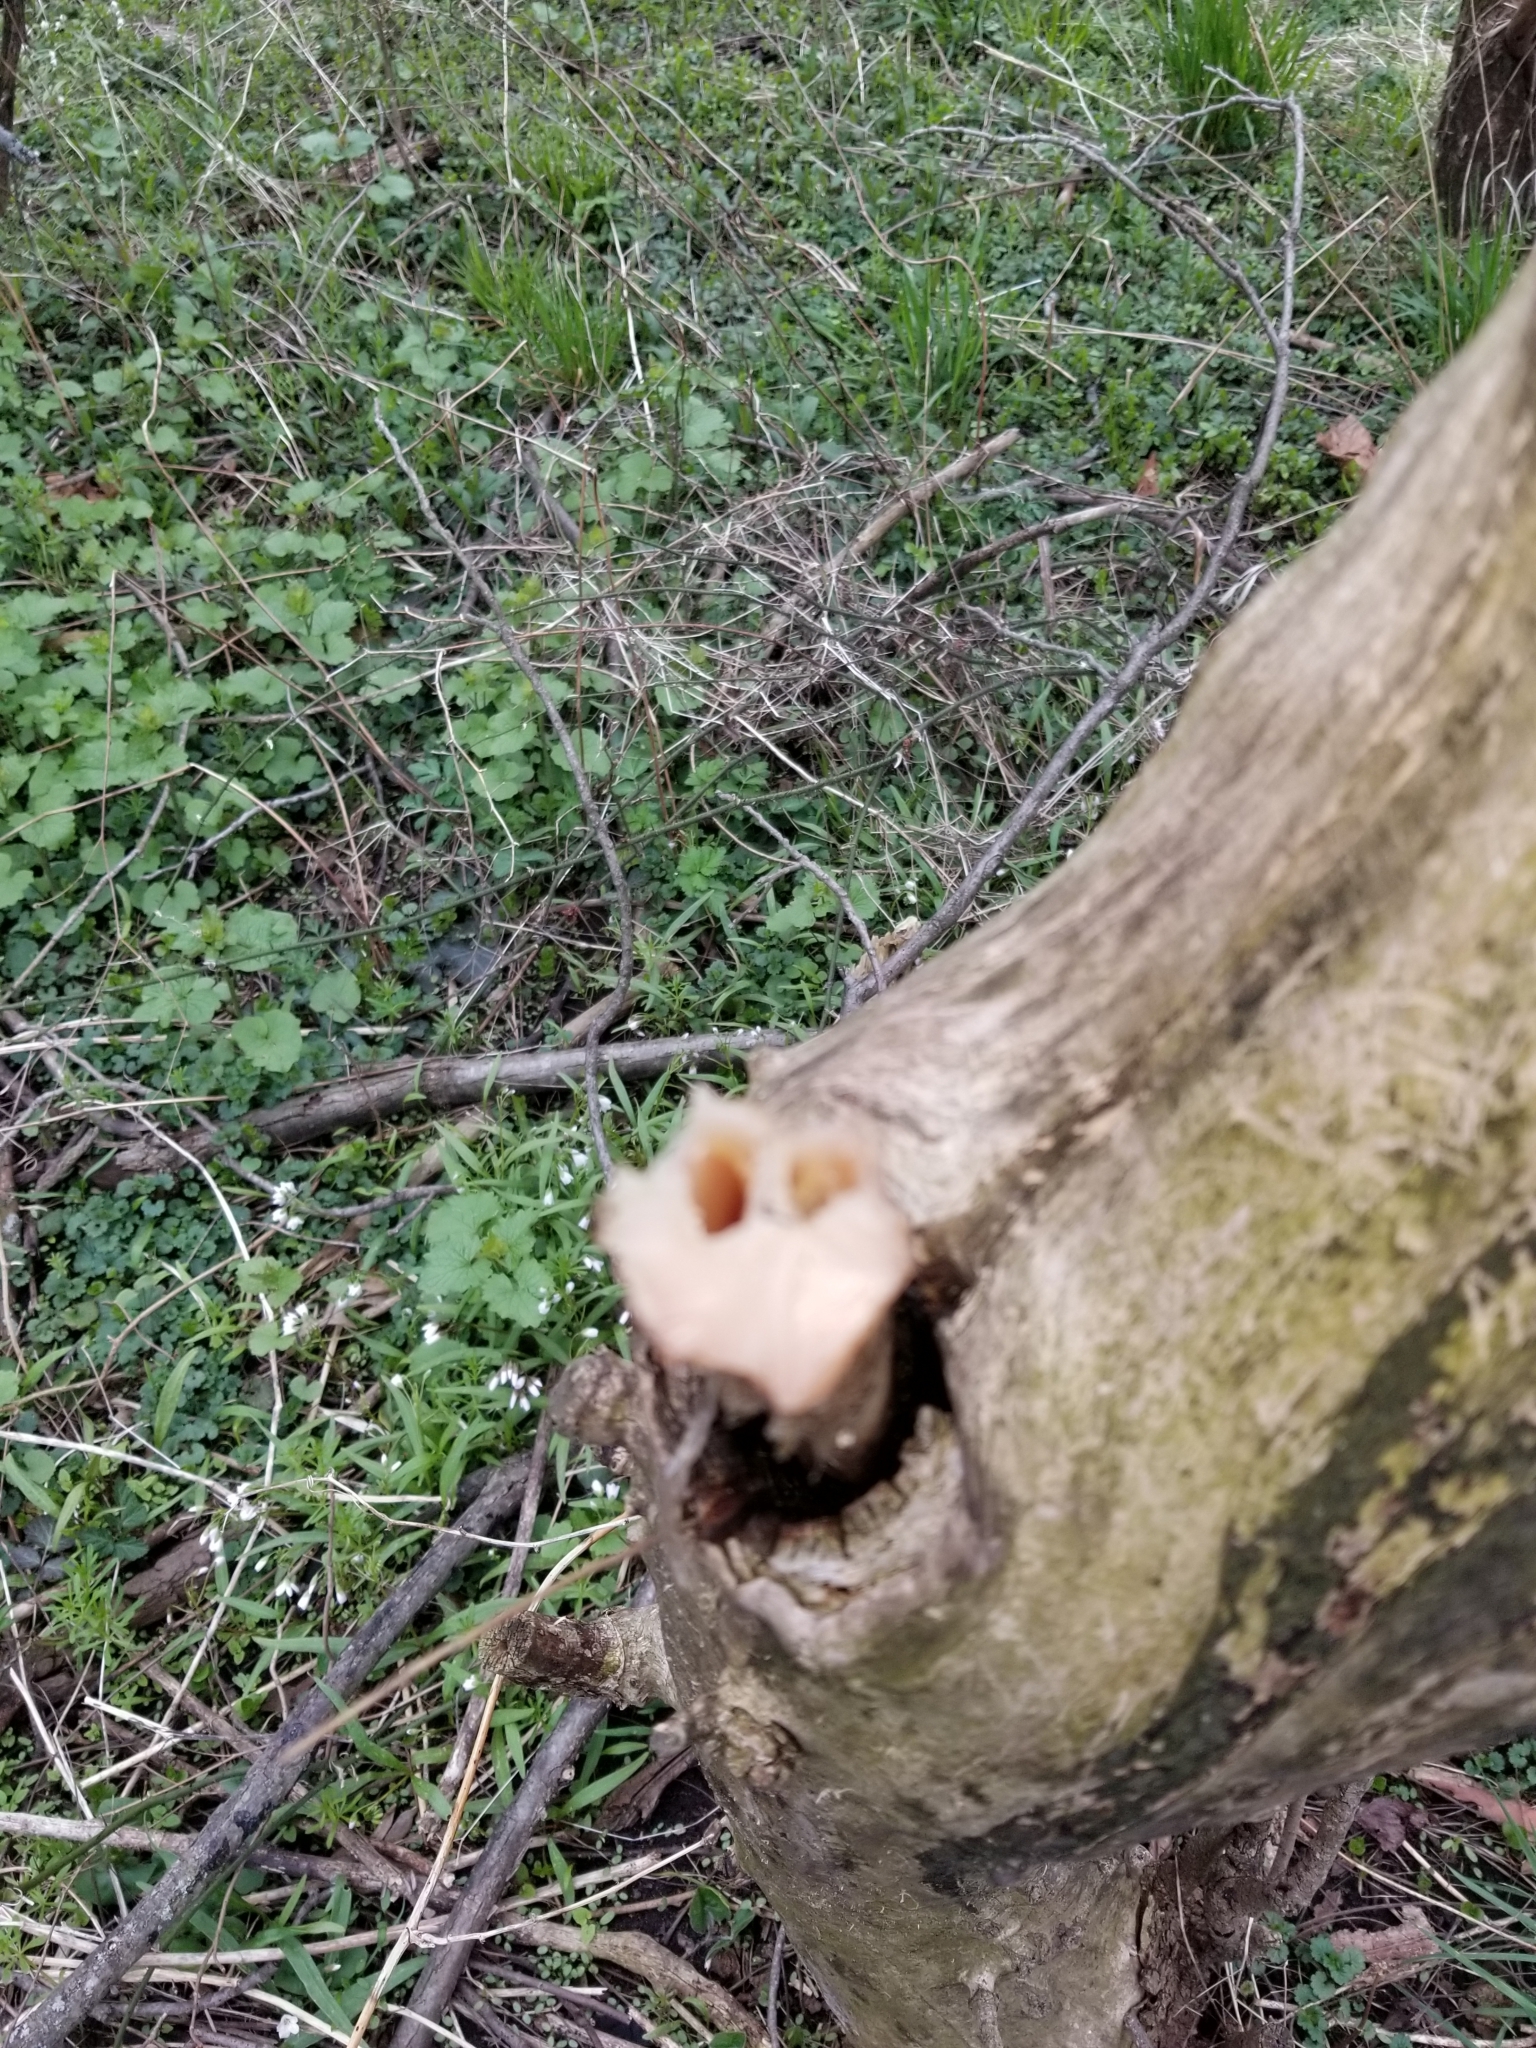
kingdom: Animalia
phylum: Chordata
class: Mammalia
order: Artiodactyla
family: Cervidae
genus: Odocoileus
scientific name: Odocoileus virginianus
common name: White-tailed deer
